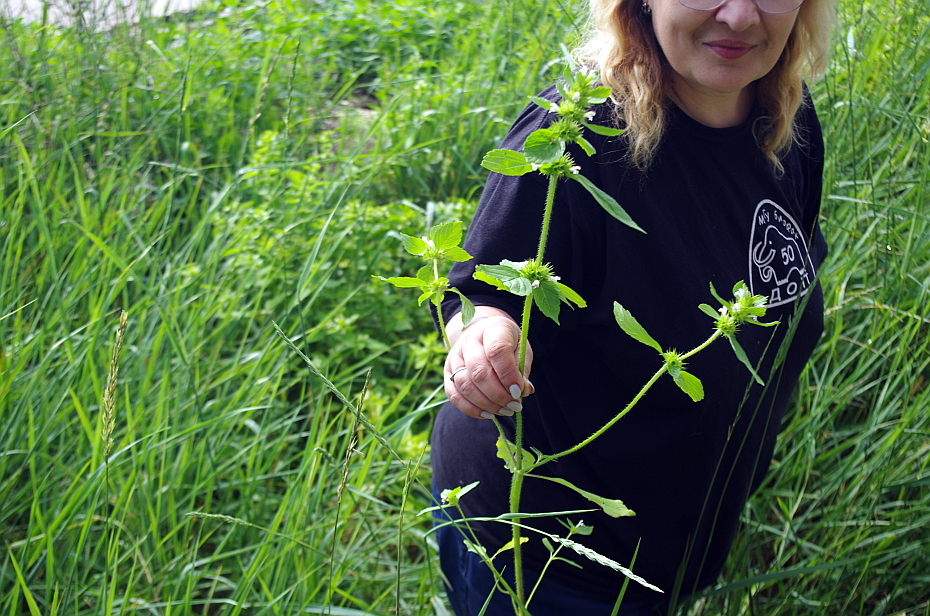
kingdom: Plantae
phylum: Tracheophyta
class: Magnoliopsida
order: Lamiales
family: Lamiaceae
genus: Galeopsis
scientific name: Galeopsis bifida
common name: Bifid hemp-nettle
